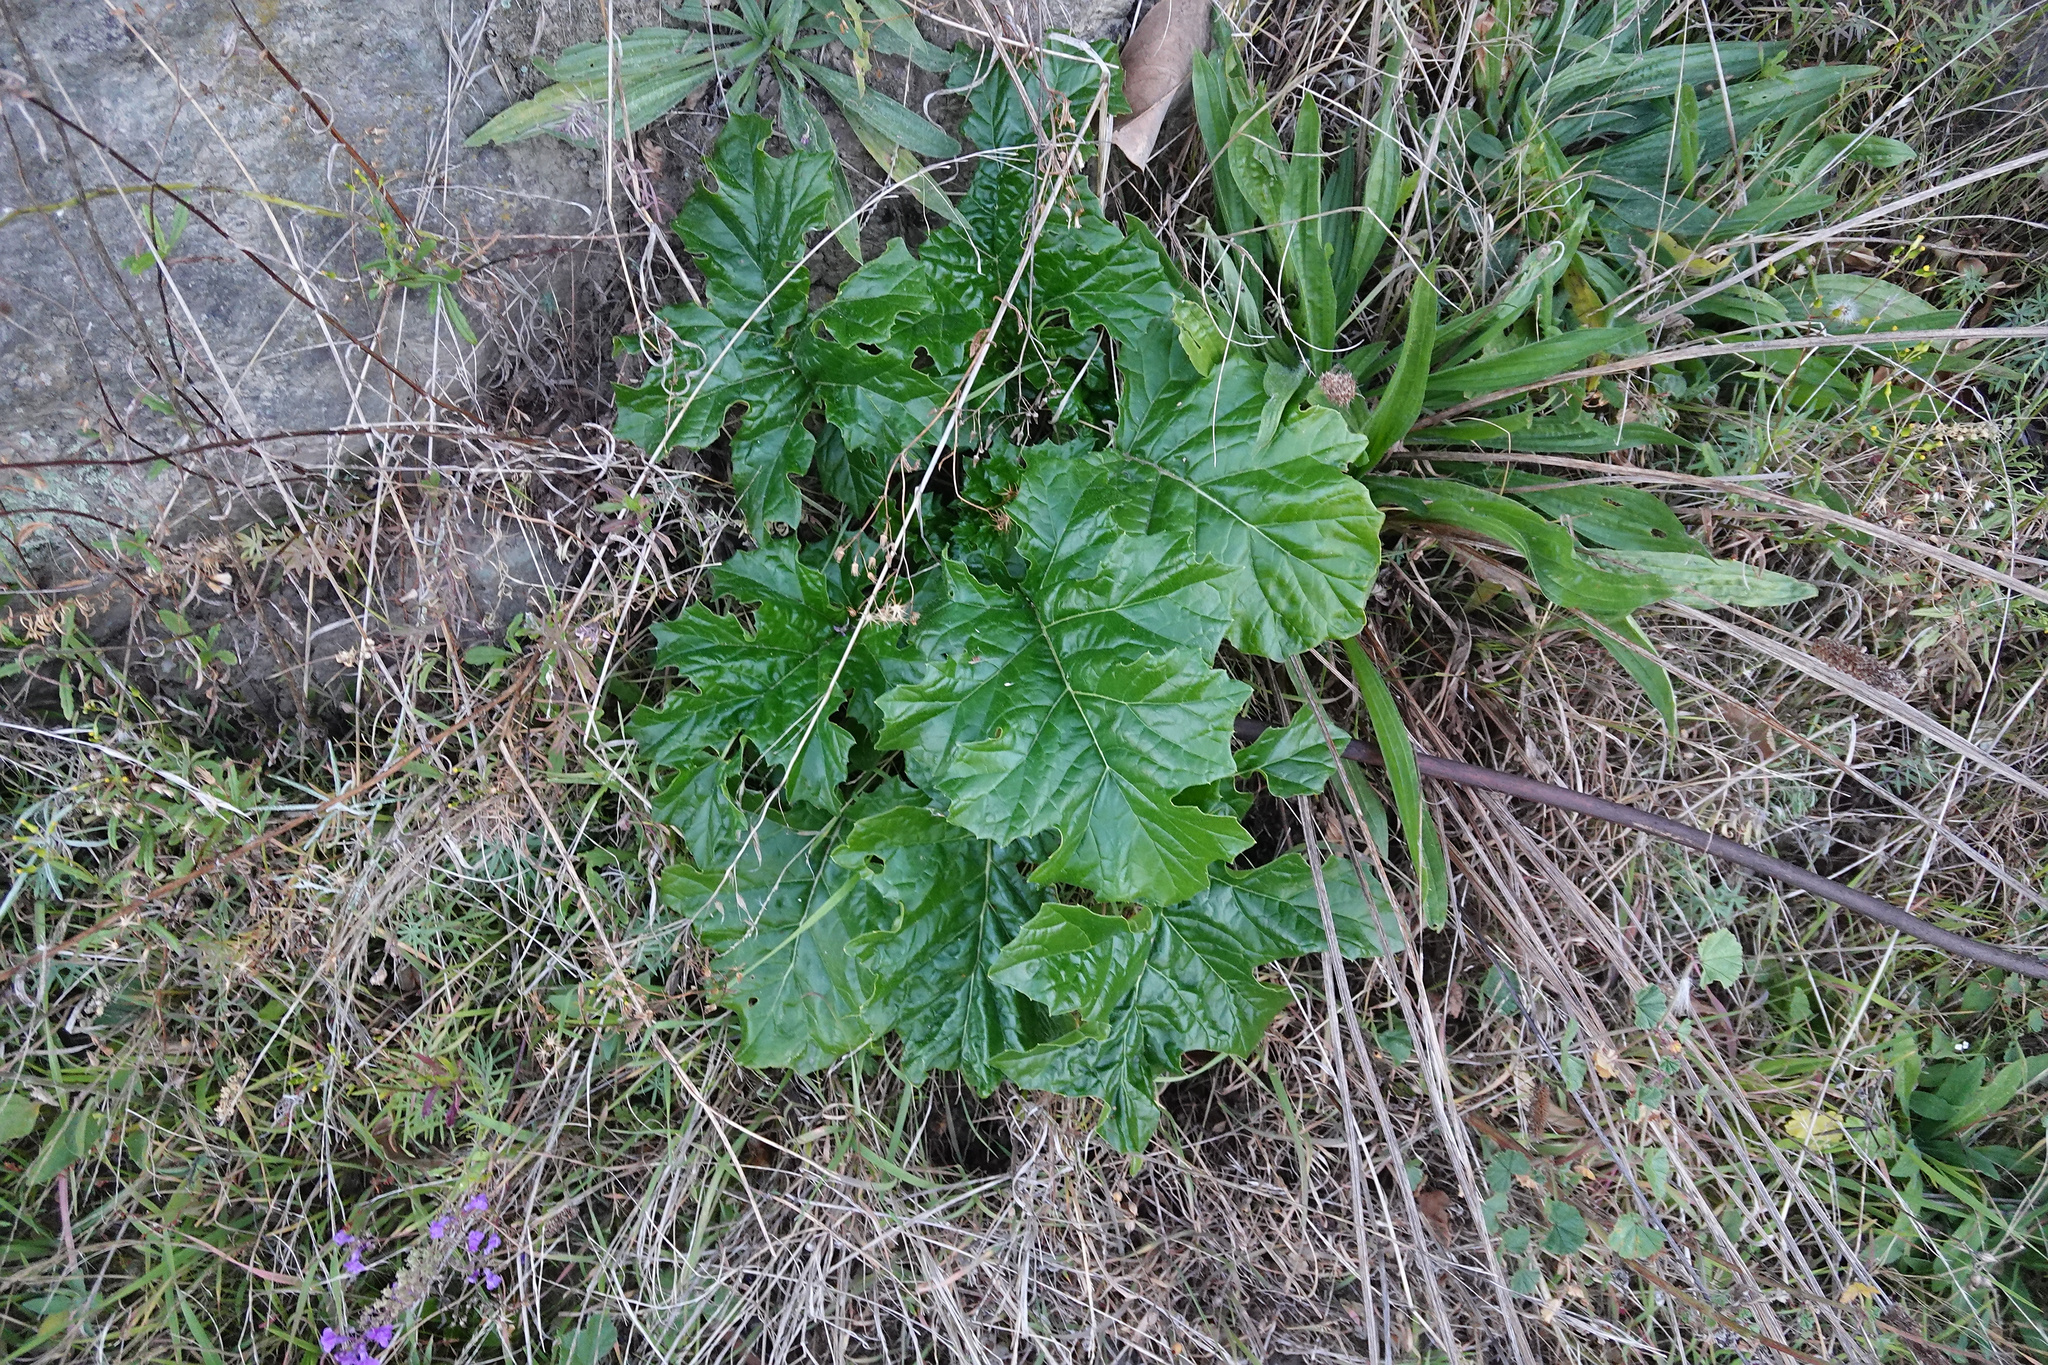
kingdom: Plantae
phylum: Tracheophyta
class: Magnoliopsida
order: Lamiales
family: Acanthaceae
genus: Acanthus
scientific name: Acanthus mollis
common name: Bear's-breech
